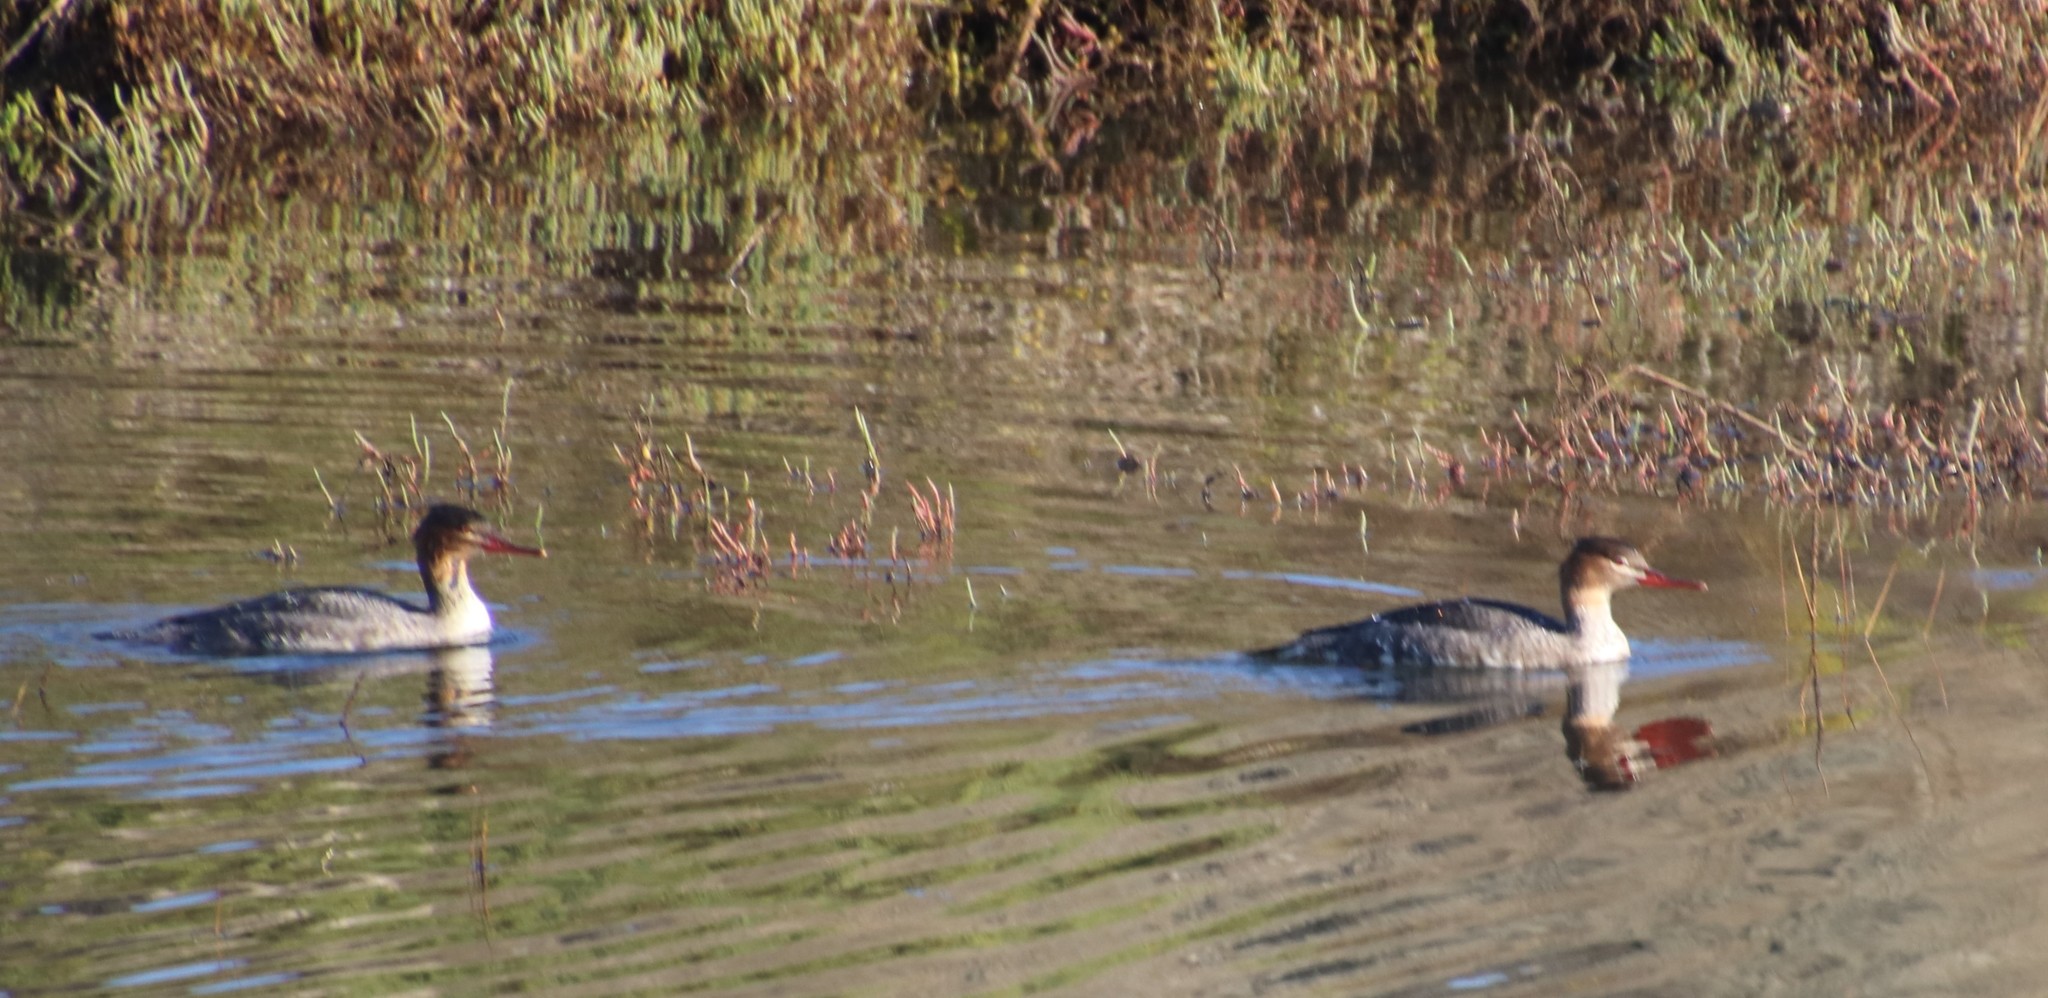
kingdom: Animalia
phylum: Chordata
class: Aves
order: Anseriformes
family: Anatidae
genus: Mergus
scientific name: Mergus serrator
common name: Red-breasted merganser
